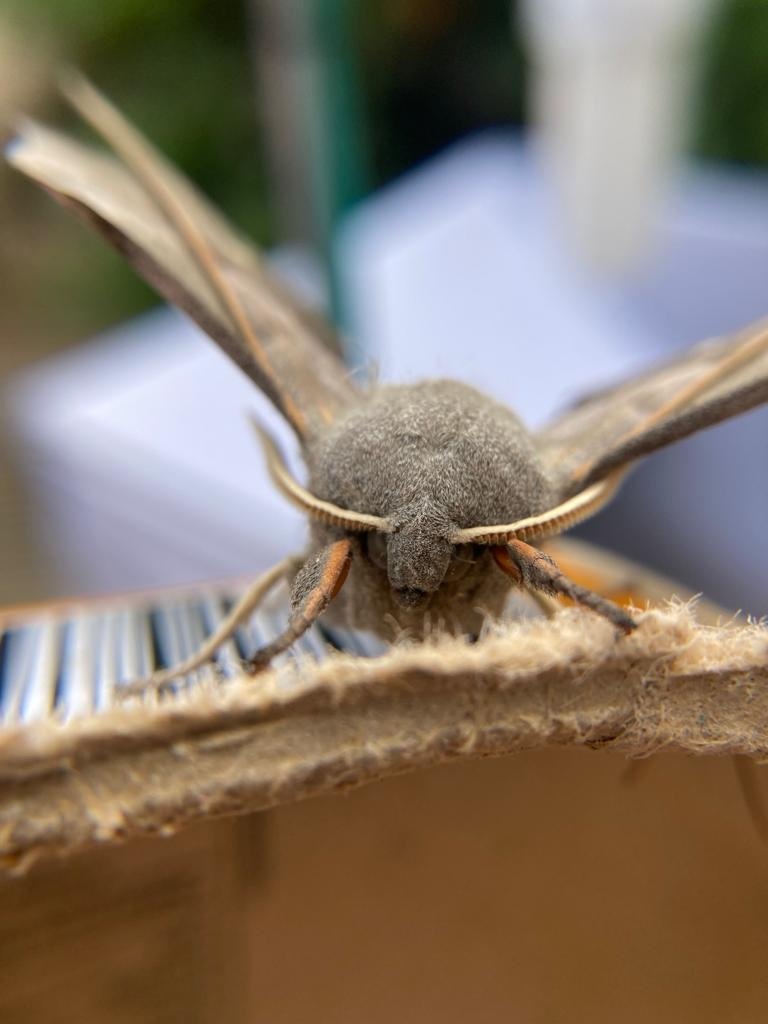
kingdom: Animalia
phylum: Arthropoda
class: Insecta
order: Lepidoptera
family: Sphingidae
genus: Laothoe
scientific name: Laothoe populi
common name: Poplar hawk-moth
